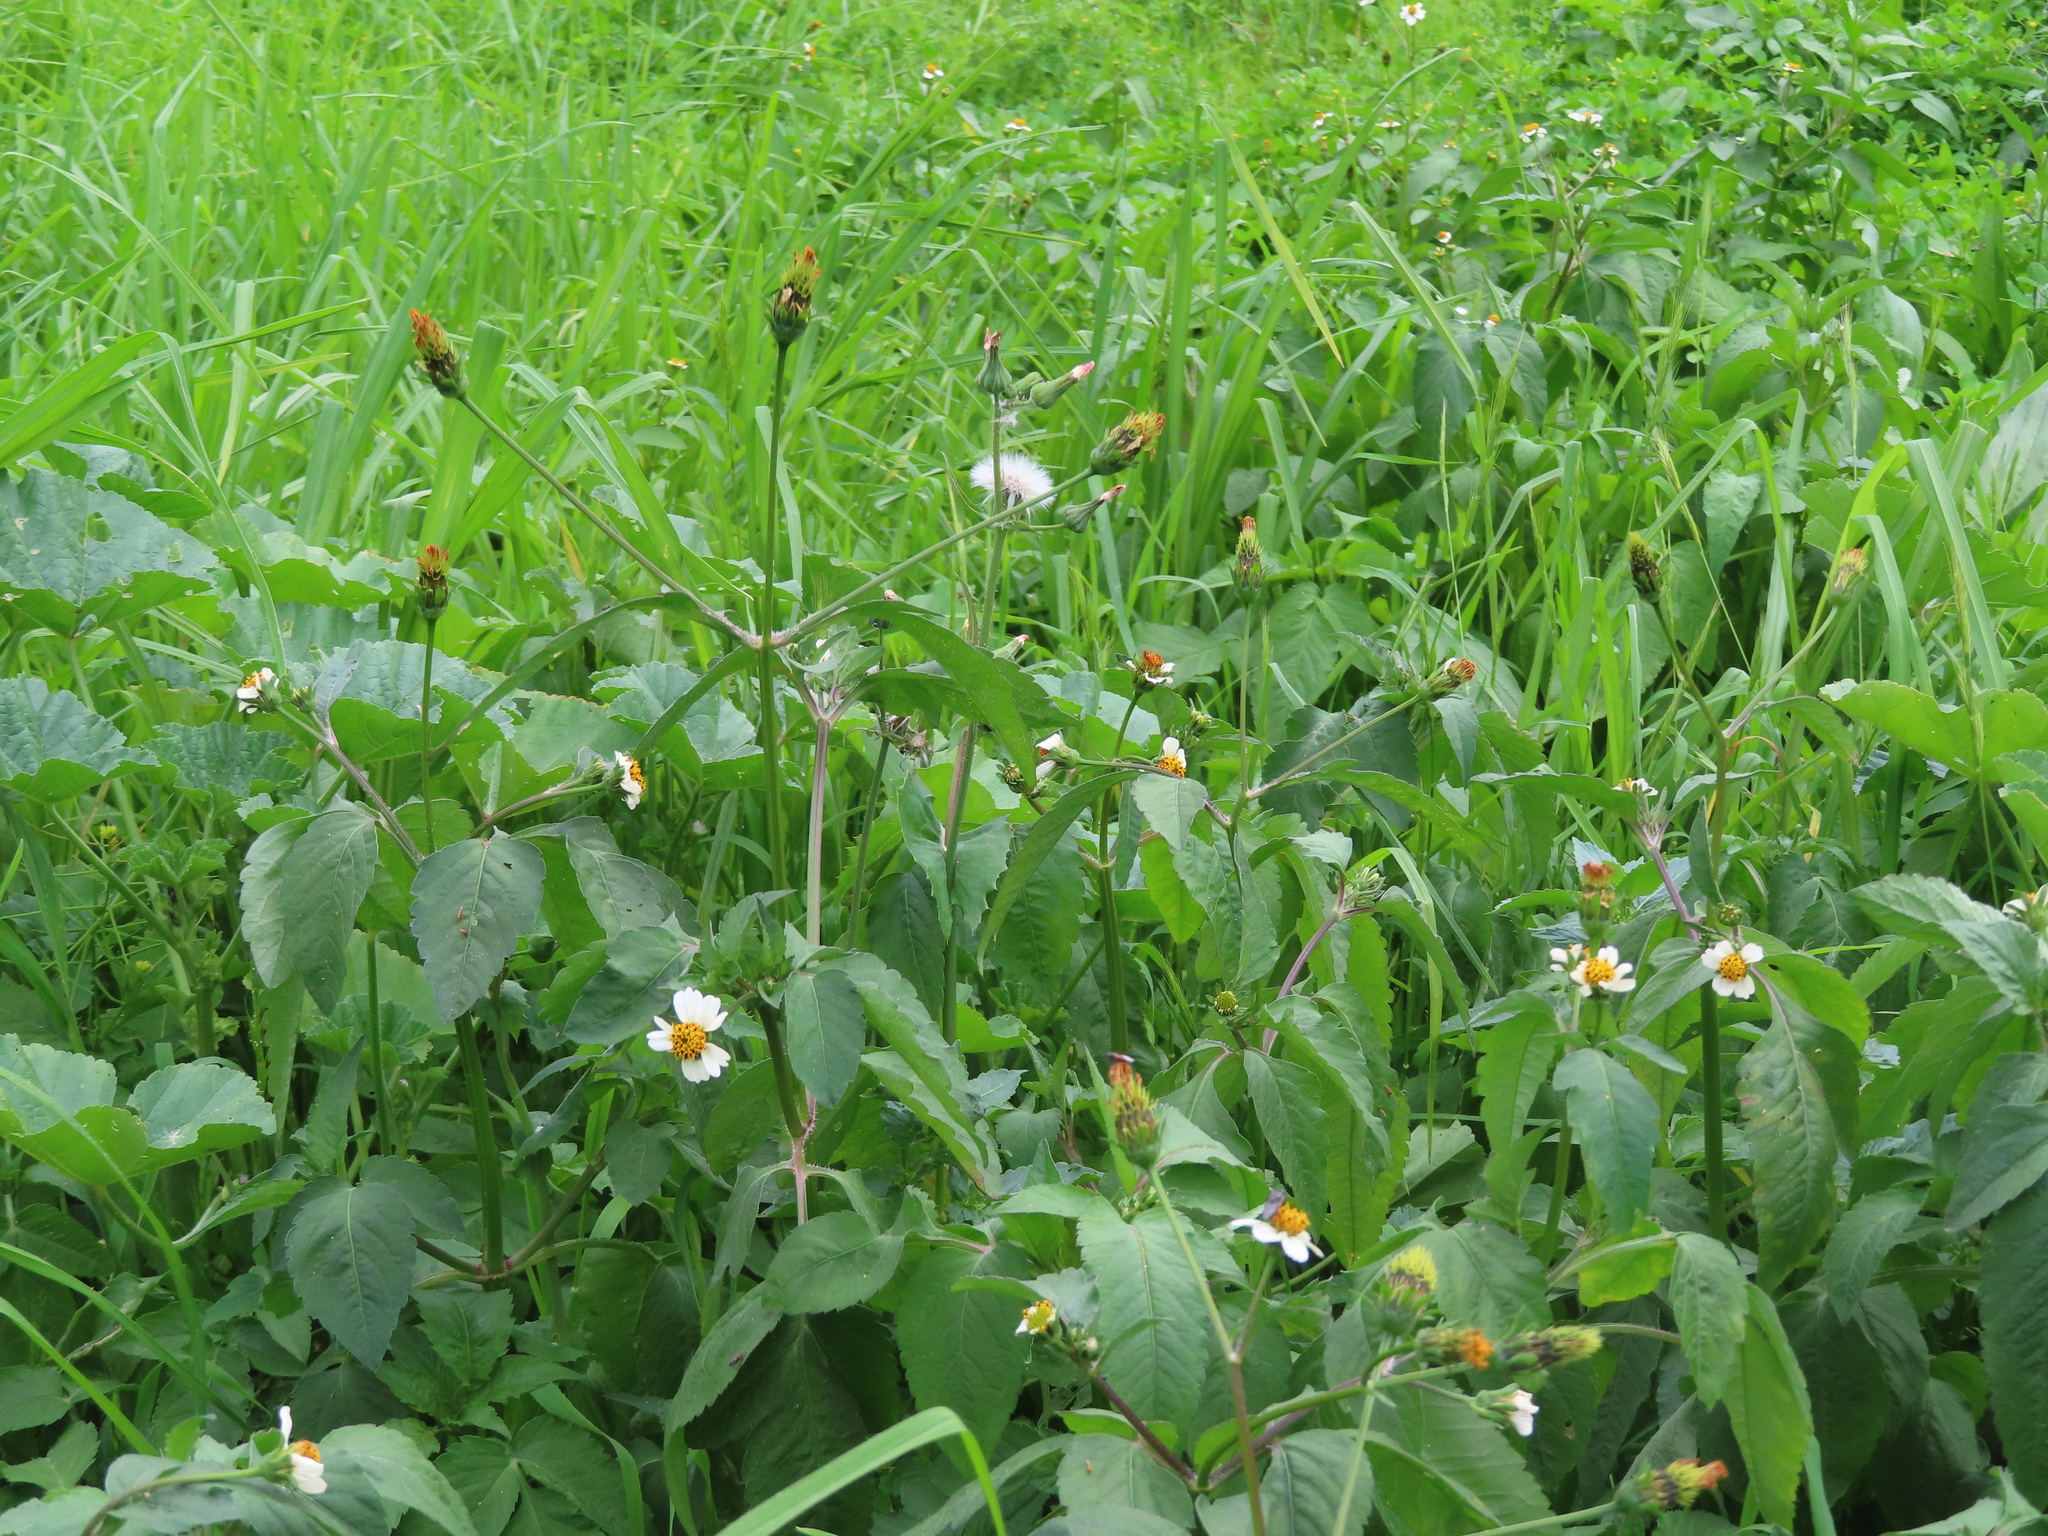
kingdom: Plantae
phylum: Tracheophyta
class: Magnoliopsida
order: Asterales
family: Asteraceae
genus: Bidens
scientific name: Bidens pilosa
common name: Black-jack
